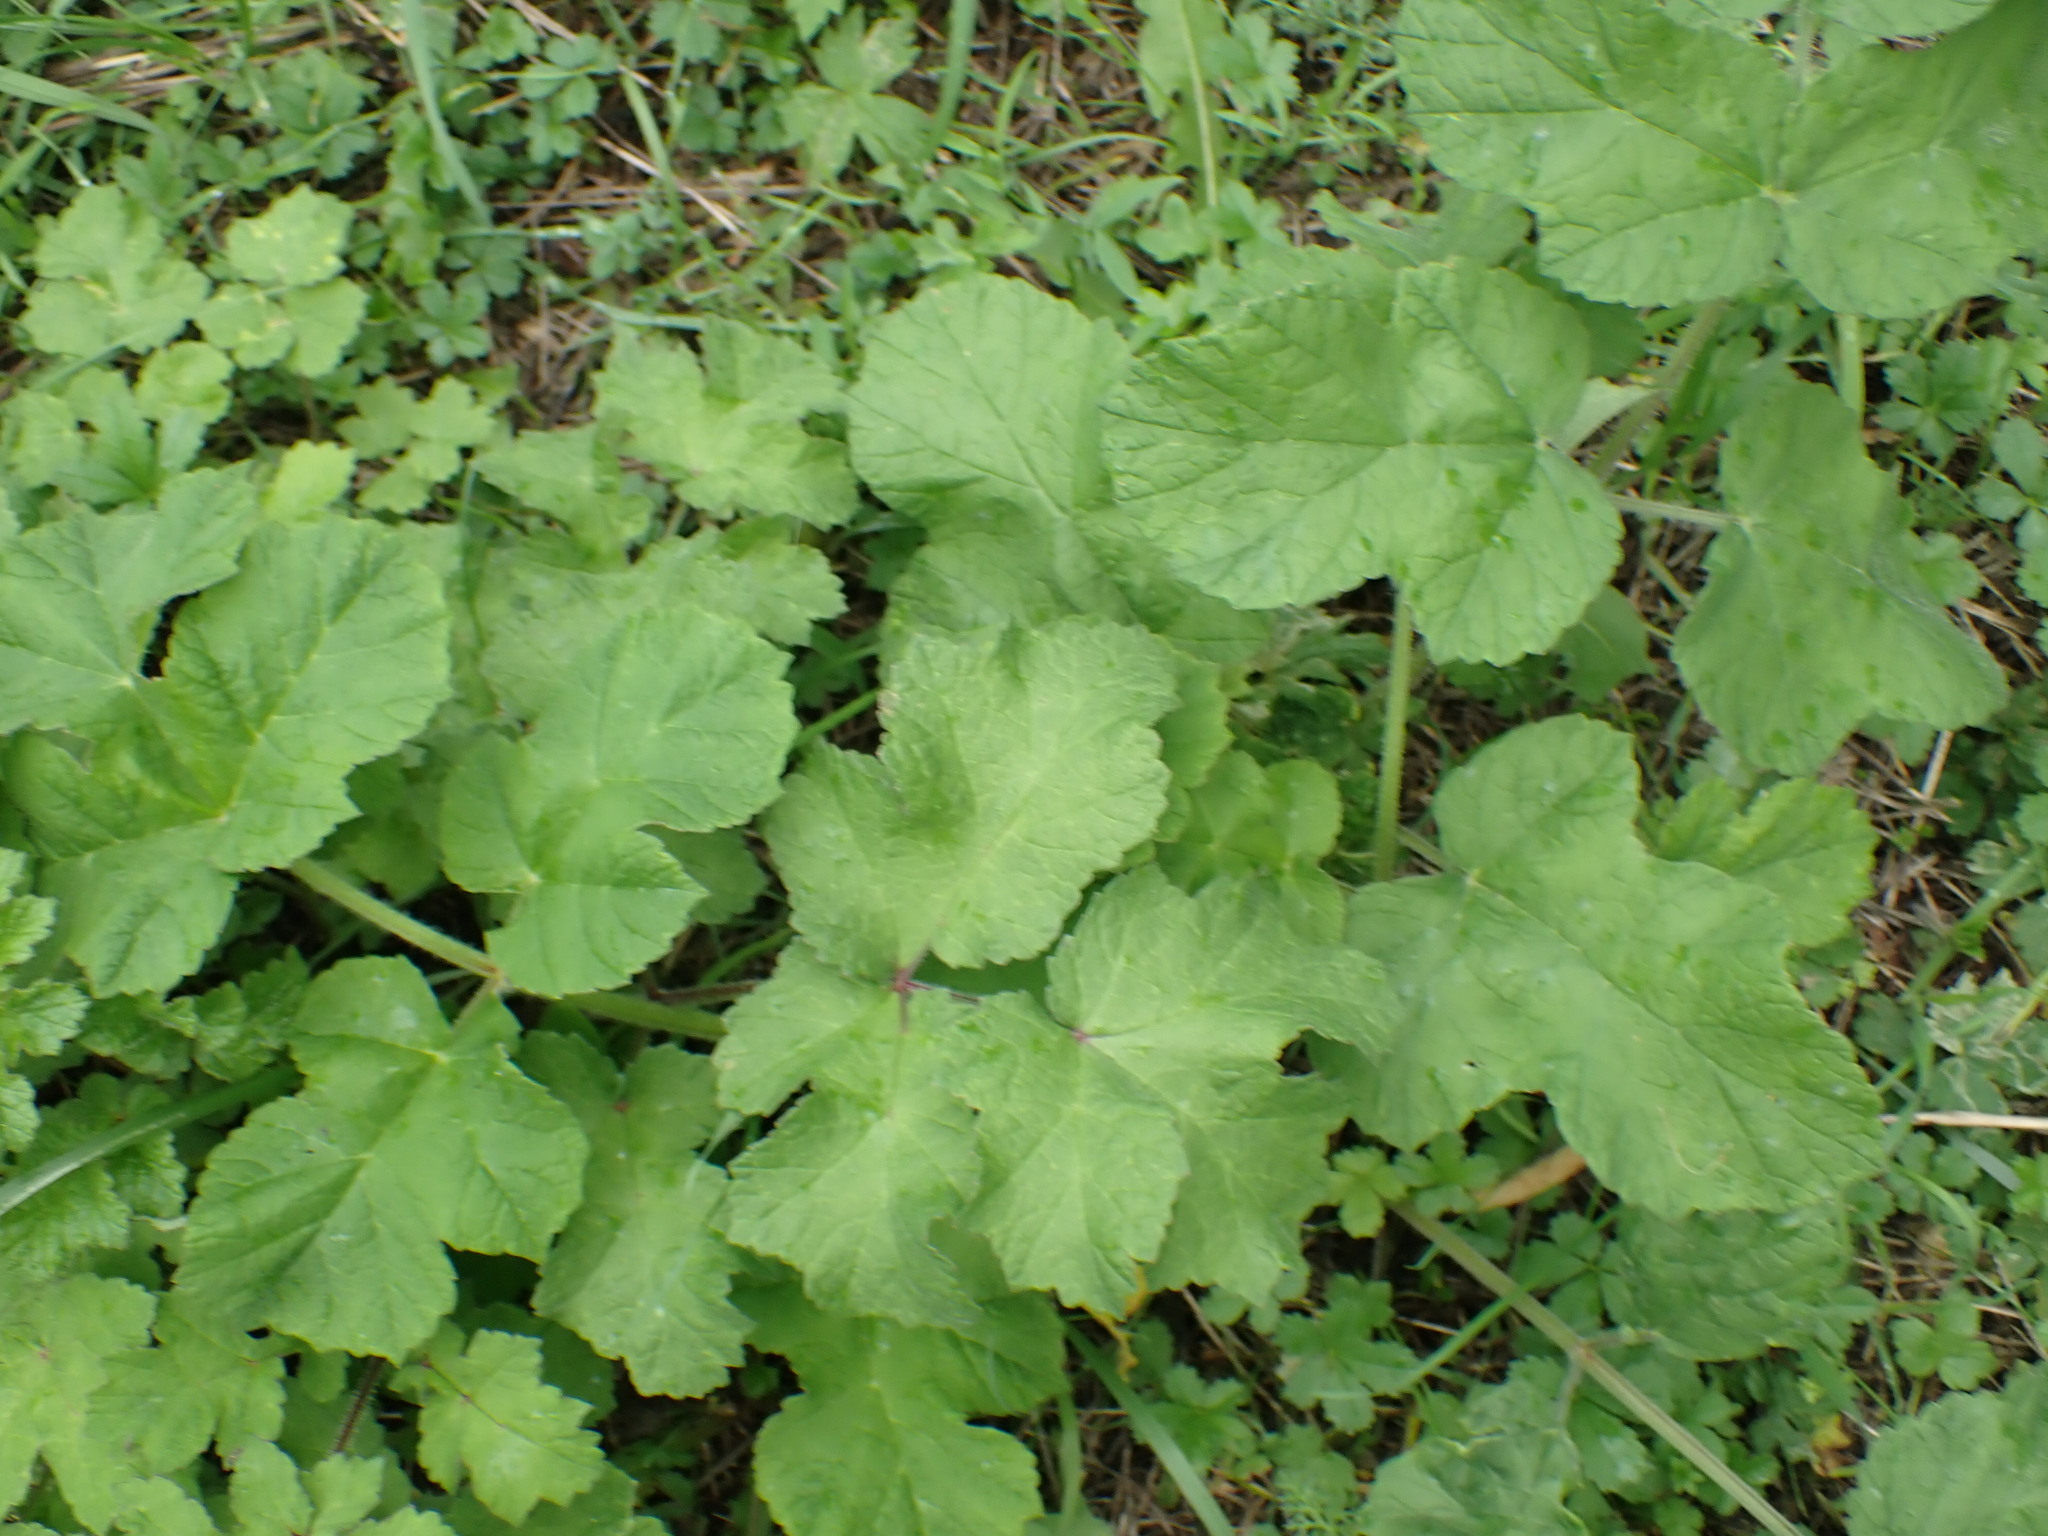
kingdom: Plantae
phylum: Tracheophyta
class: Magnoliopsida
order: Apiales
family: Apiaceae
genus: Heracleum
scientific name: Heracleum sphondylium
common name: Hogweed
